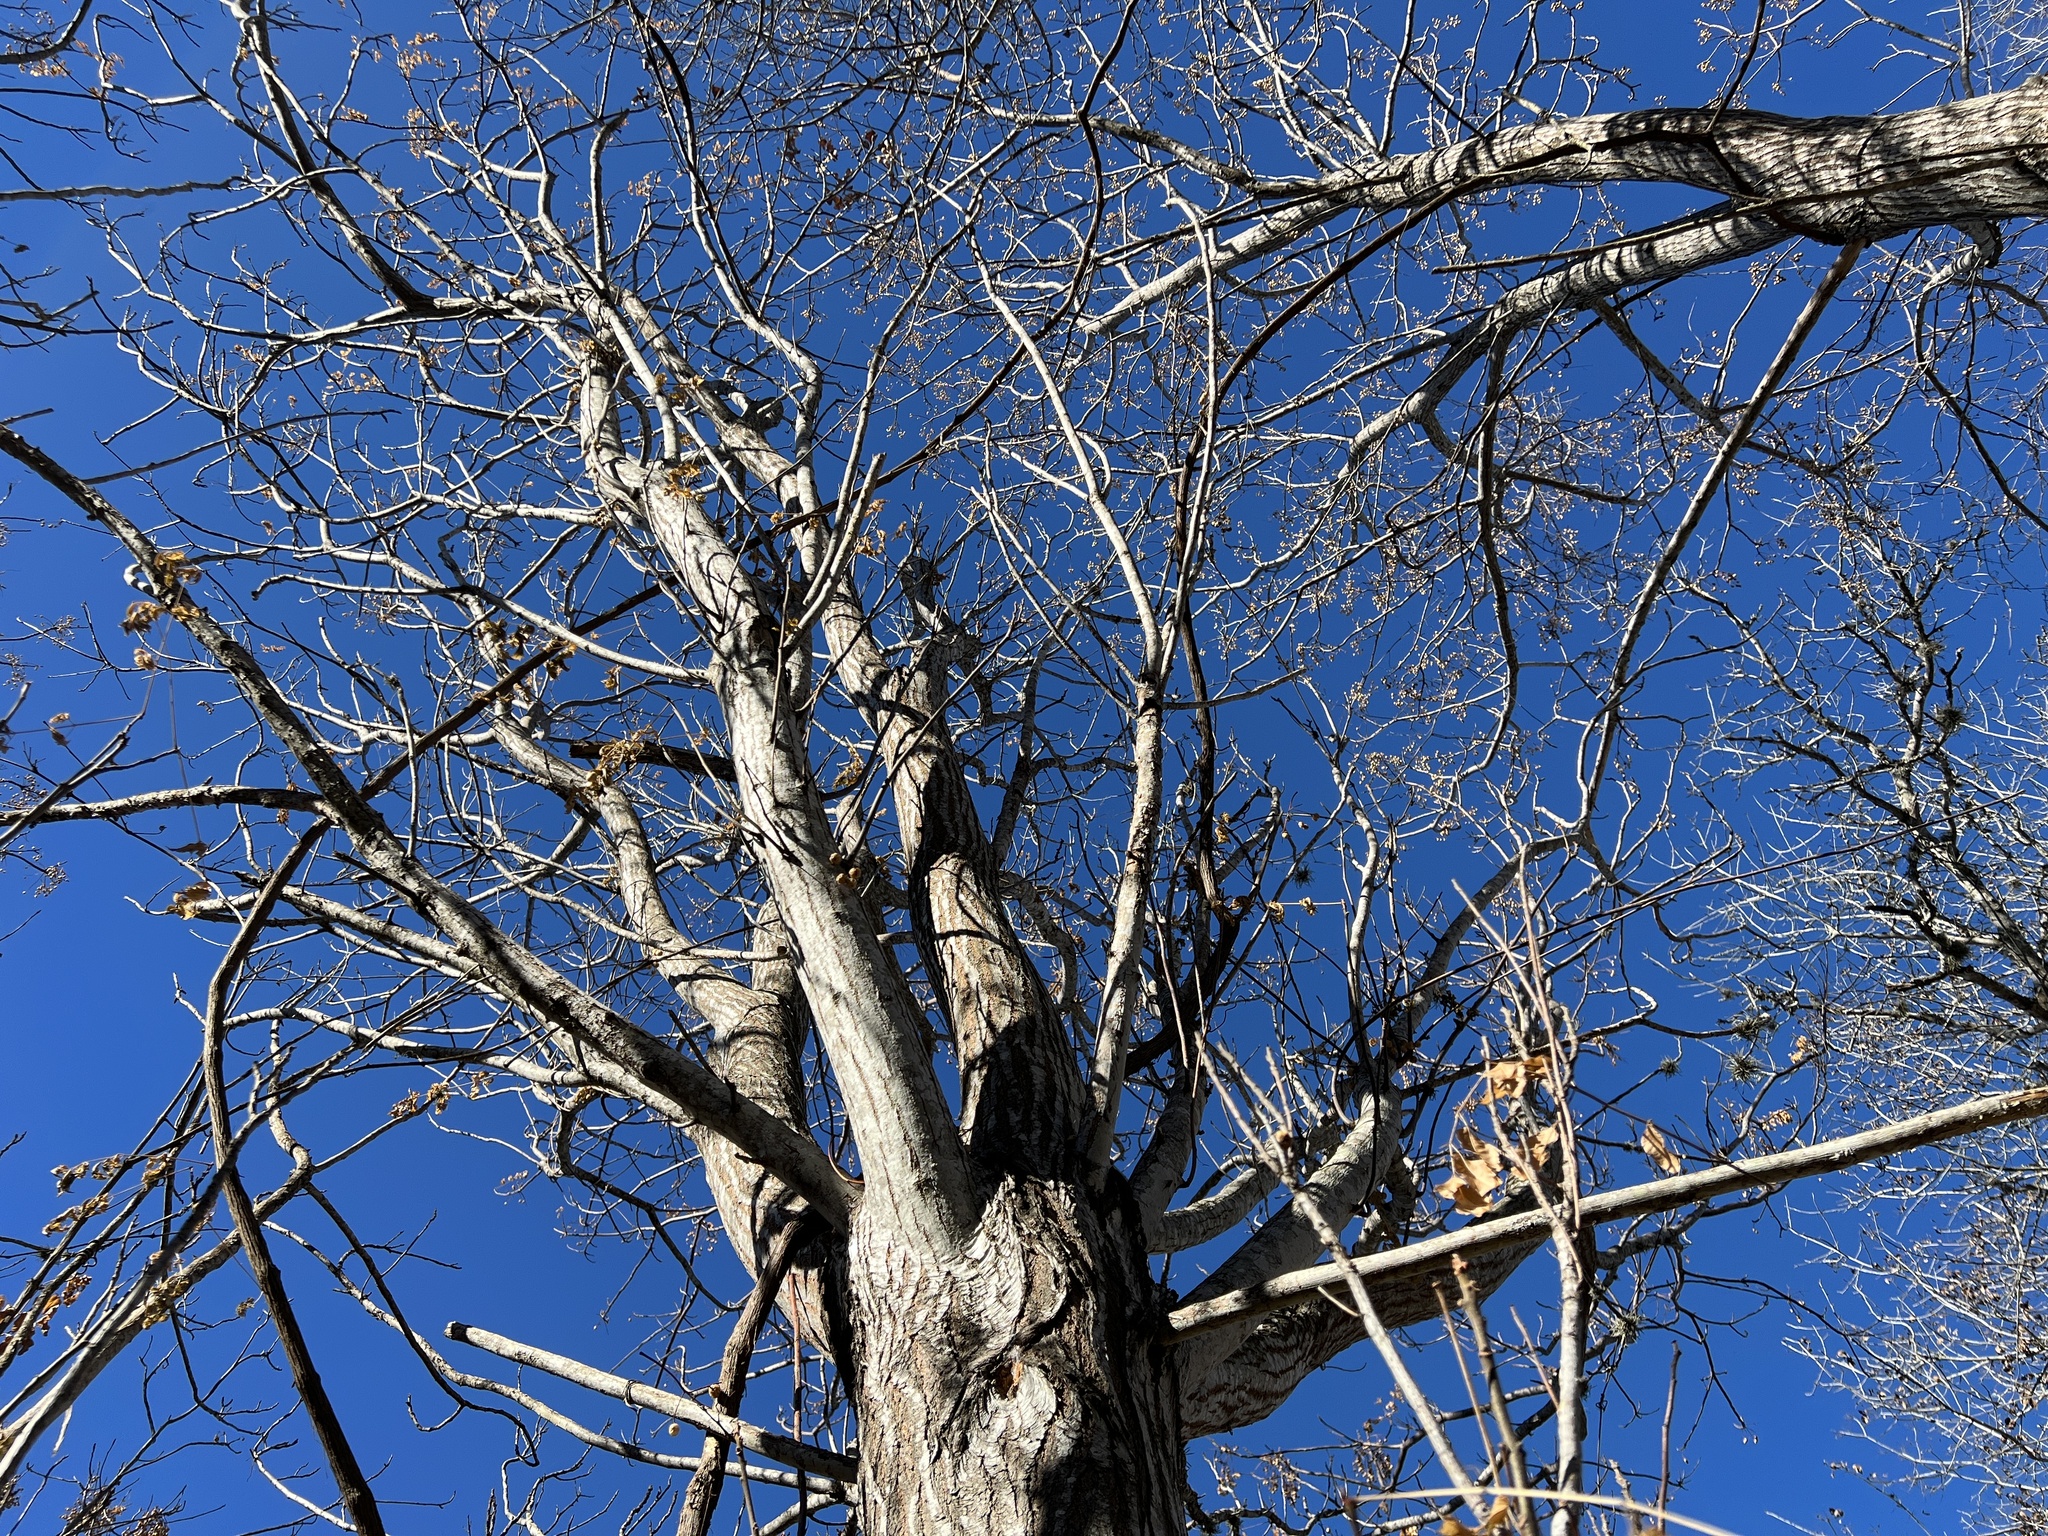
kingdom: Plantae
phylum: Tracheophyta
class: Magnoliopsida
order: Sapindales
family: Meliaceae
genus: Melia
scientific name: Melia azedarach
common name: Chinaberrytree
